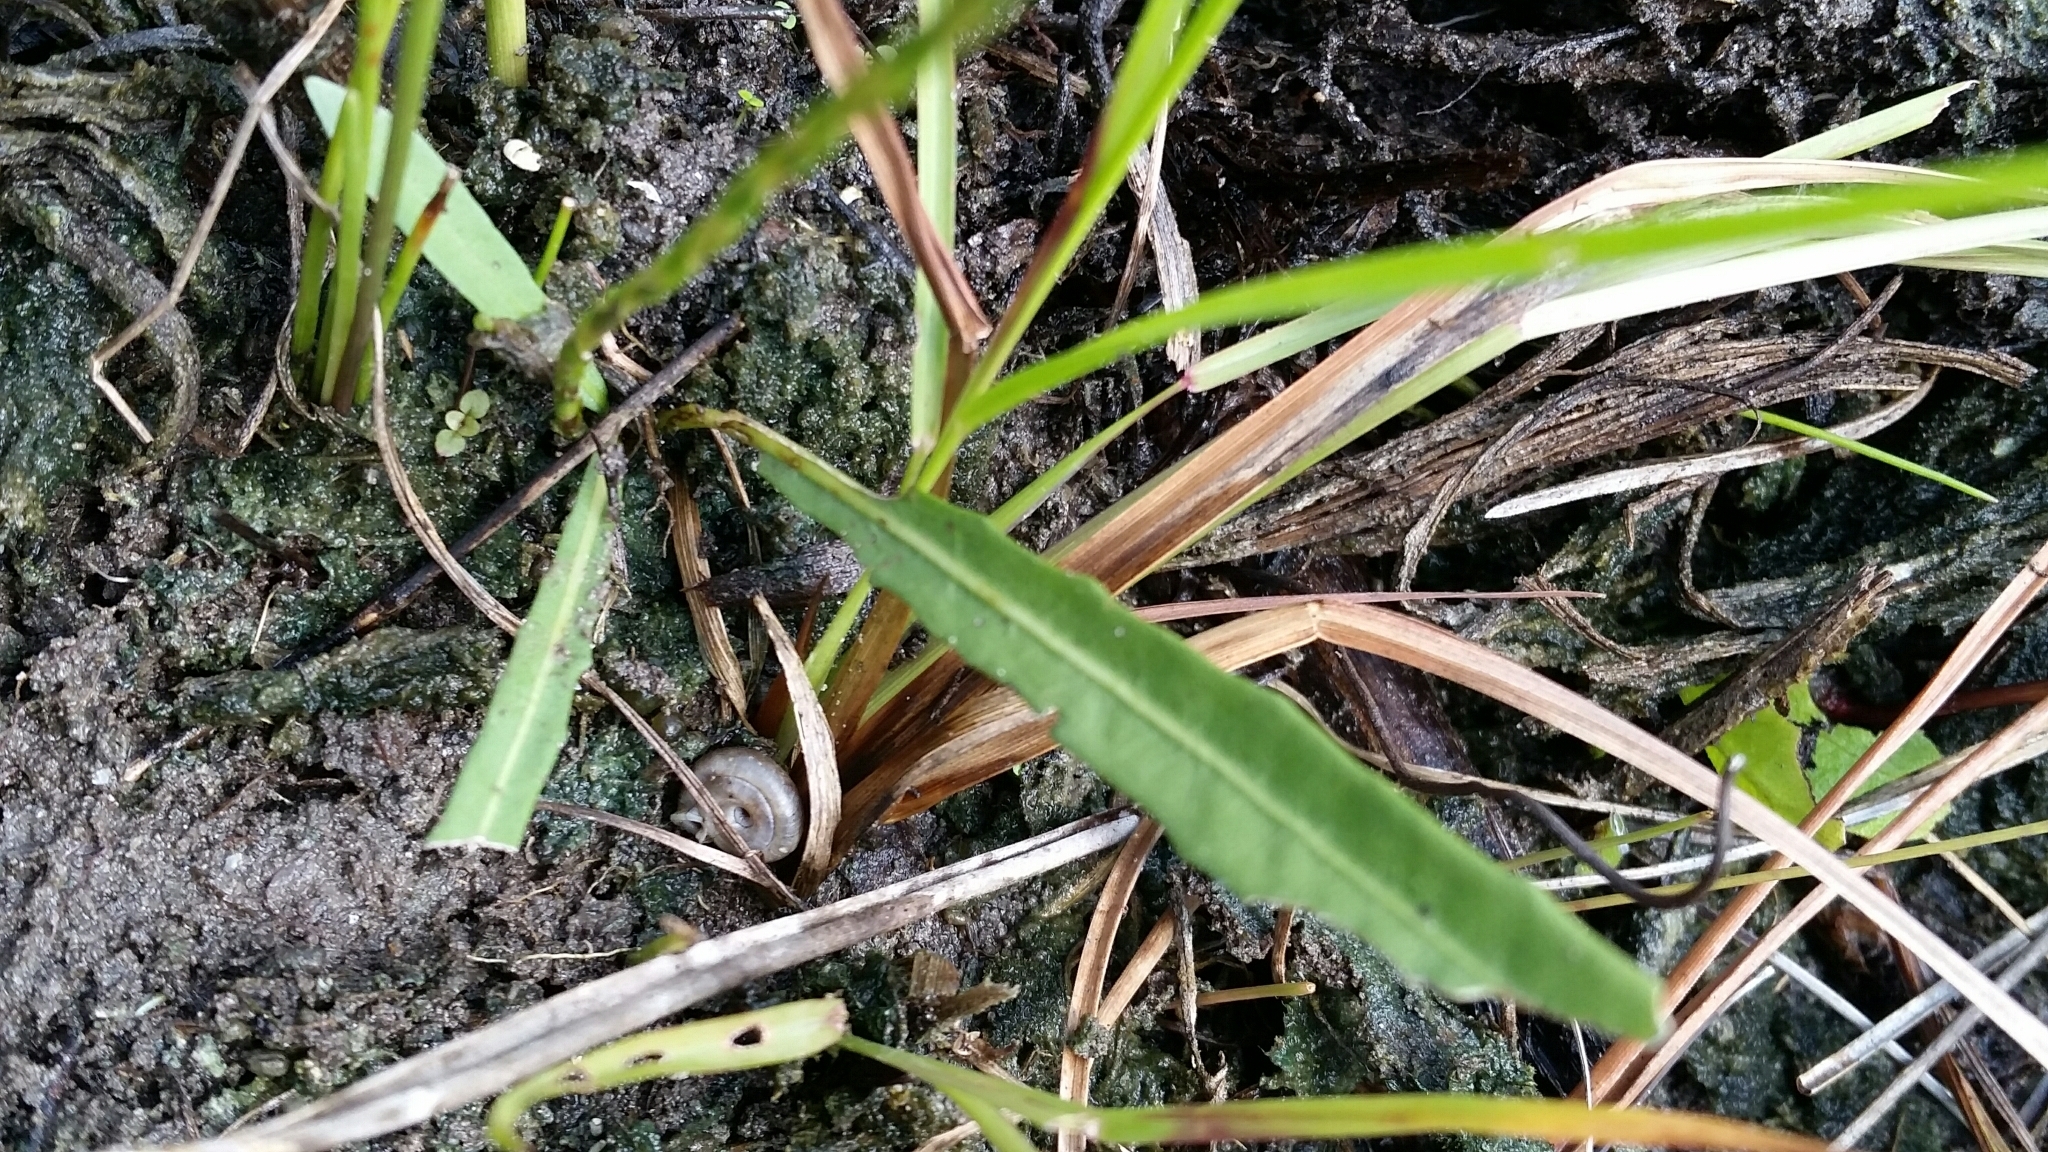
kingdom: Plantae
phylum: Tracheophyta
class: Magnoliopsida
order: Lamiales
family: Acanthaceae
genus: Elytraria
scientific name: Elytraria caroliniensis
